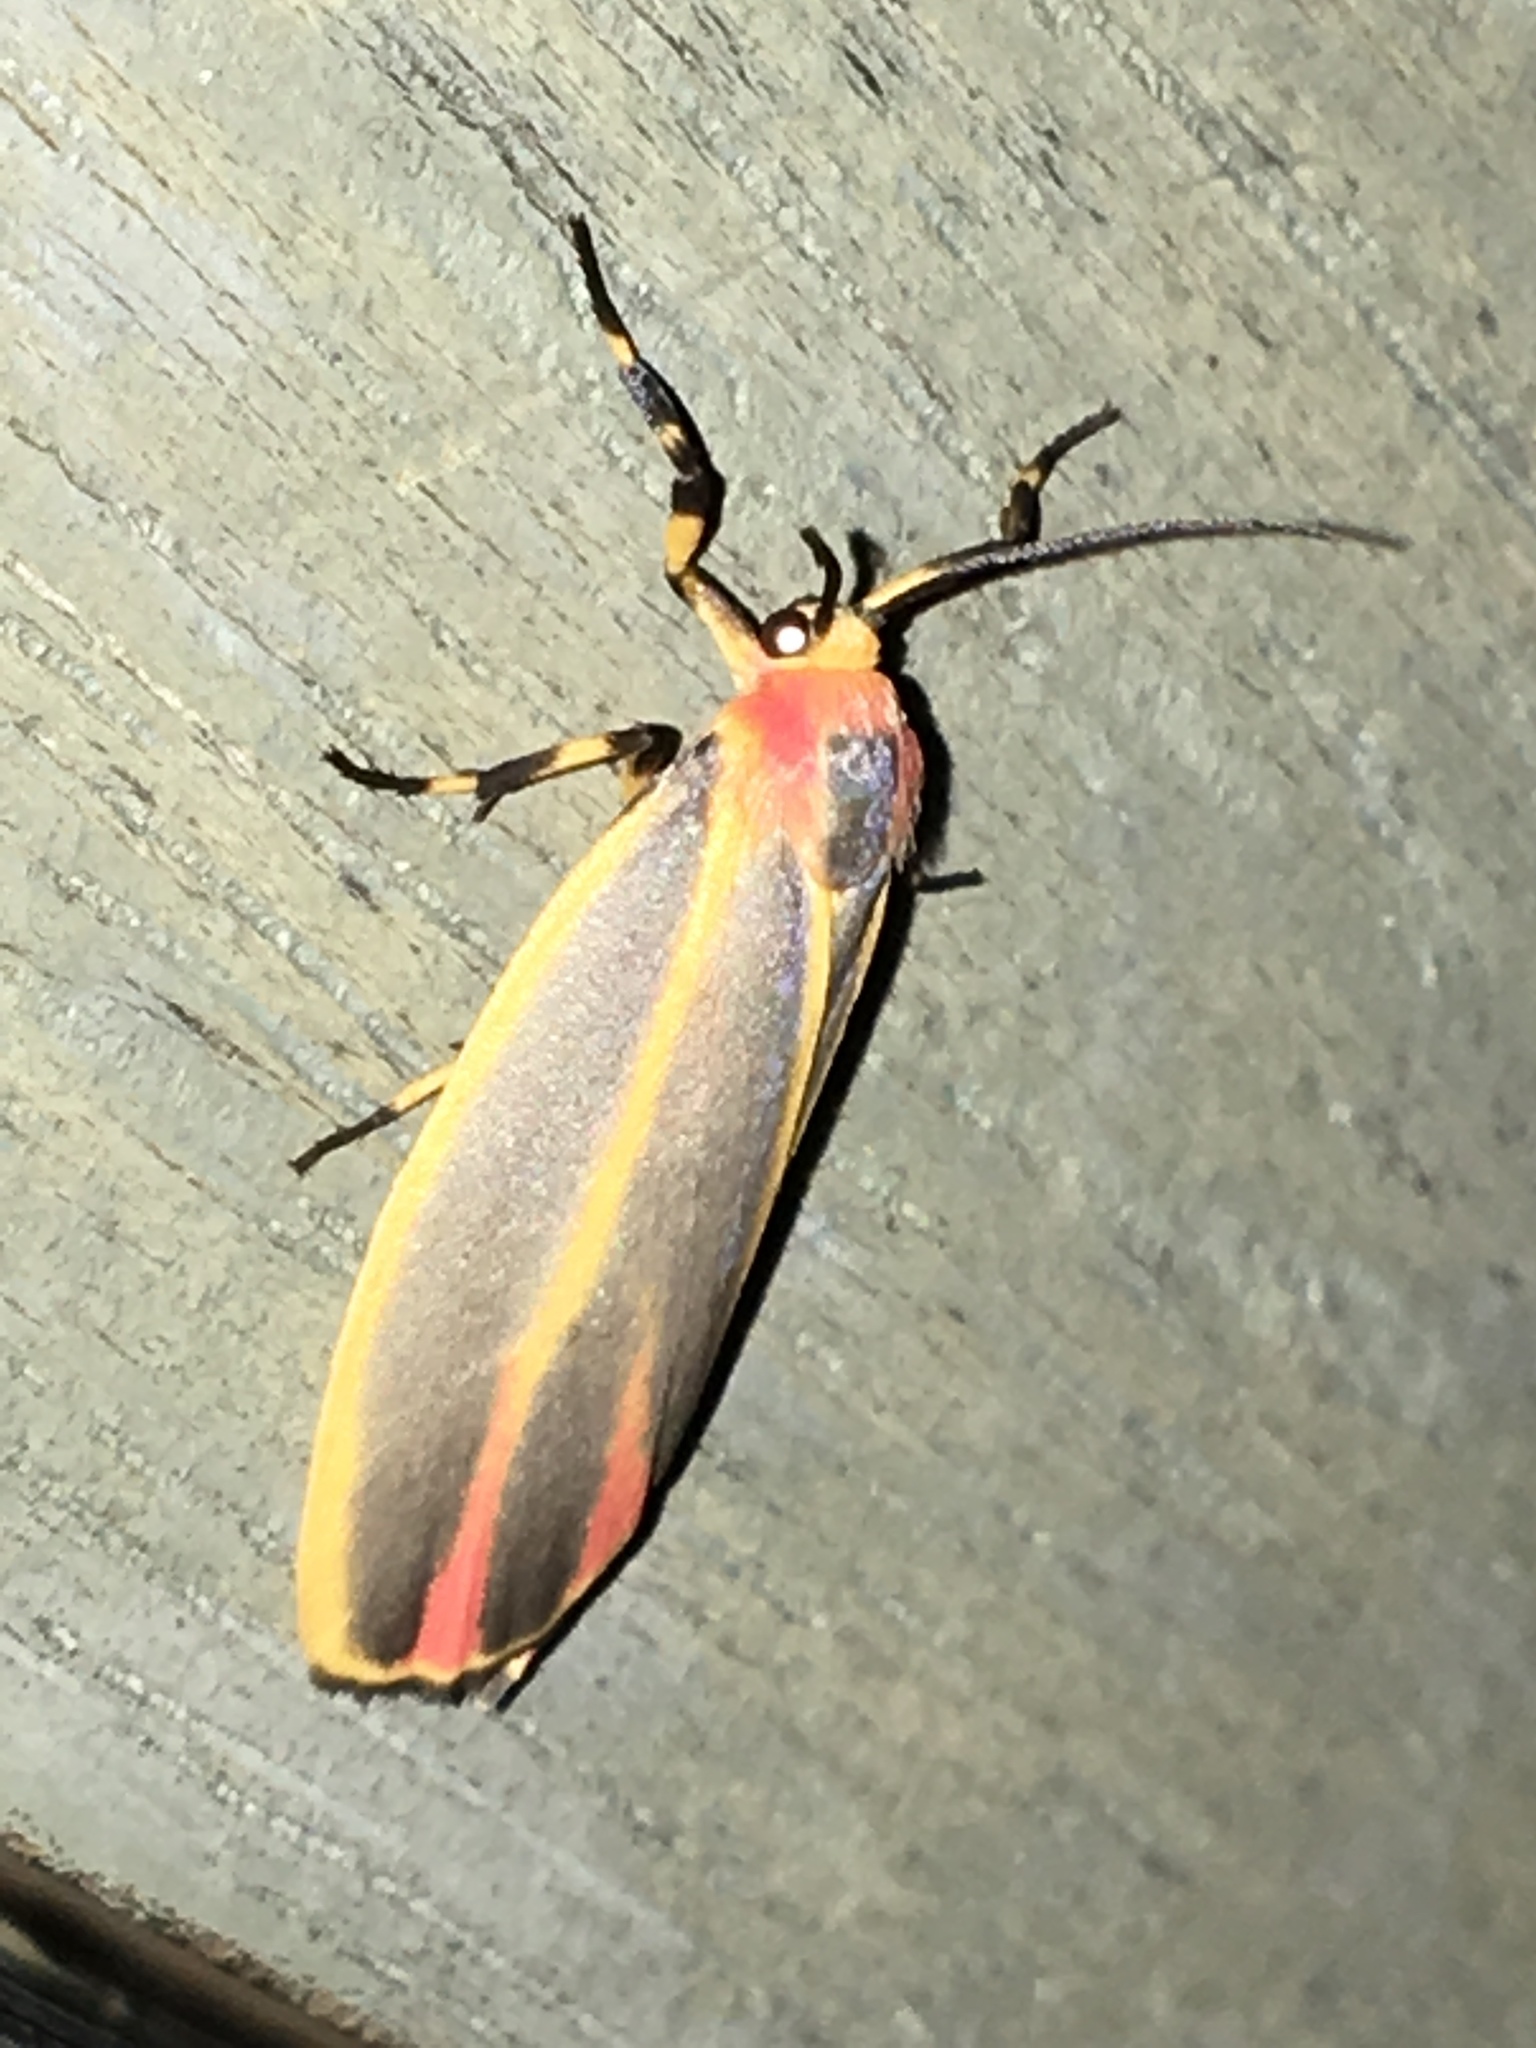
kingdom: Animalia
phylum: Arthropoda
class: Insecta
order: Lepidoptera
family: Erebidae
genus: Hypoprepia
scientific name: Hypoprepia fucosa
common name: Painted lichen moth
